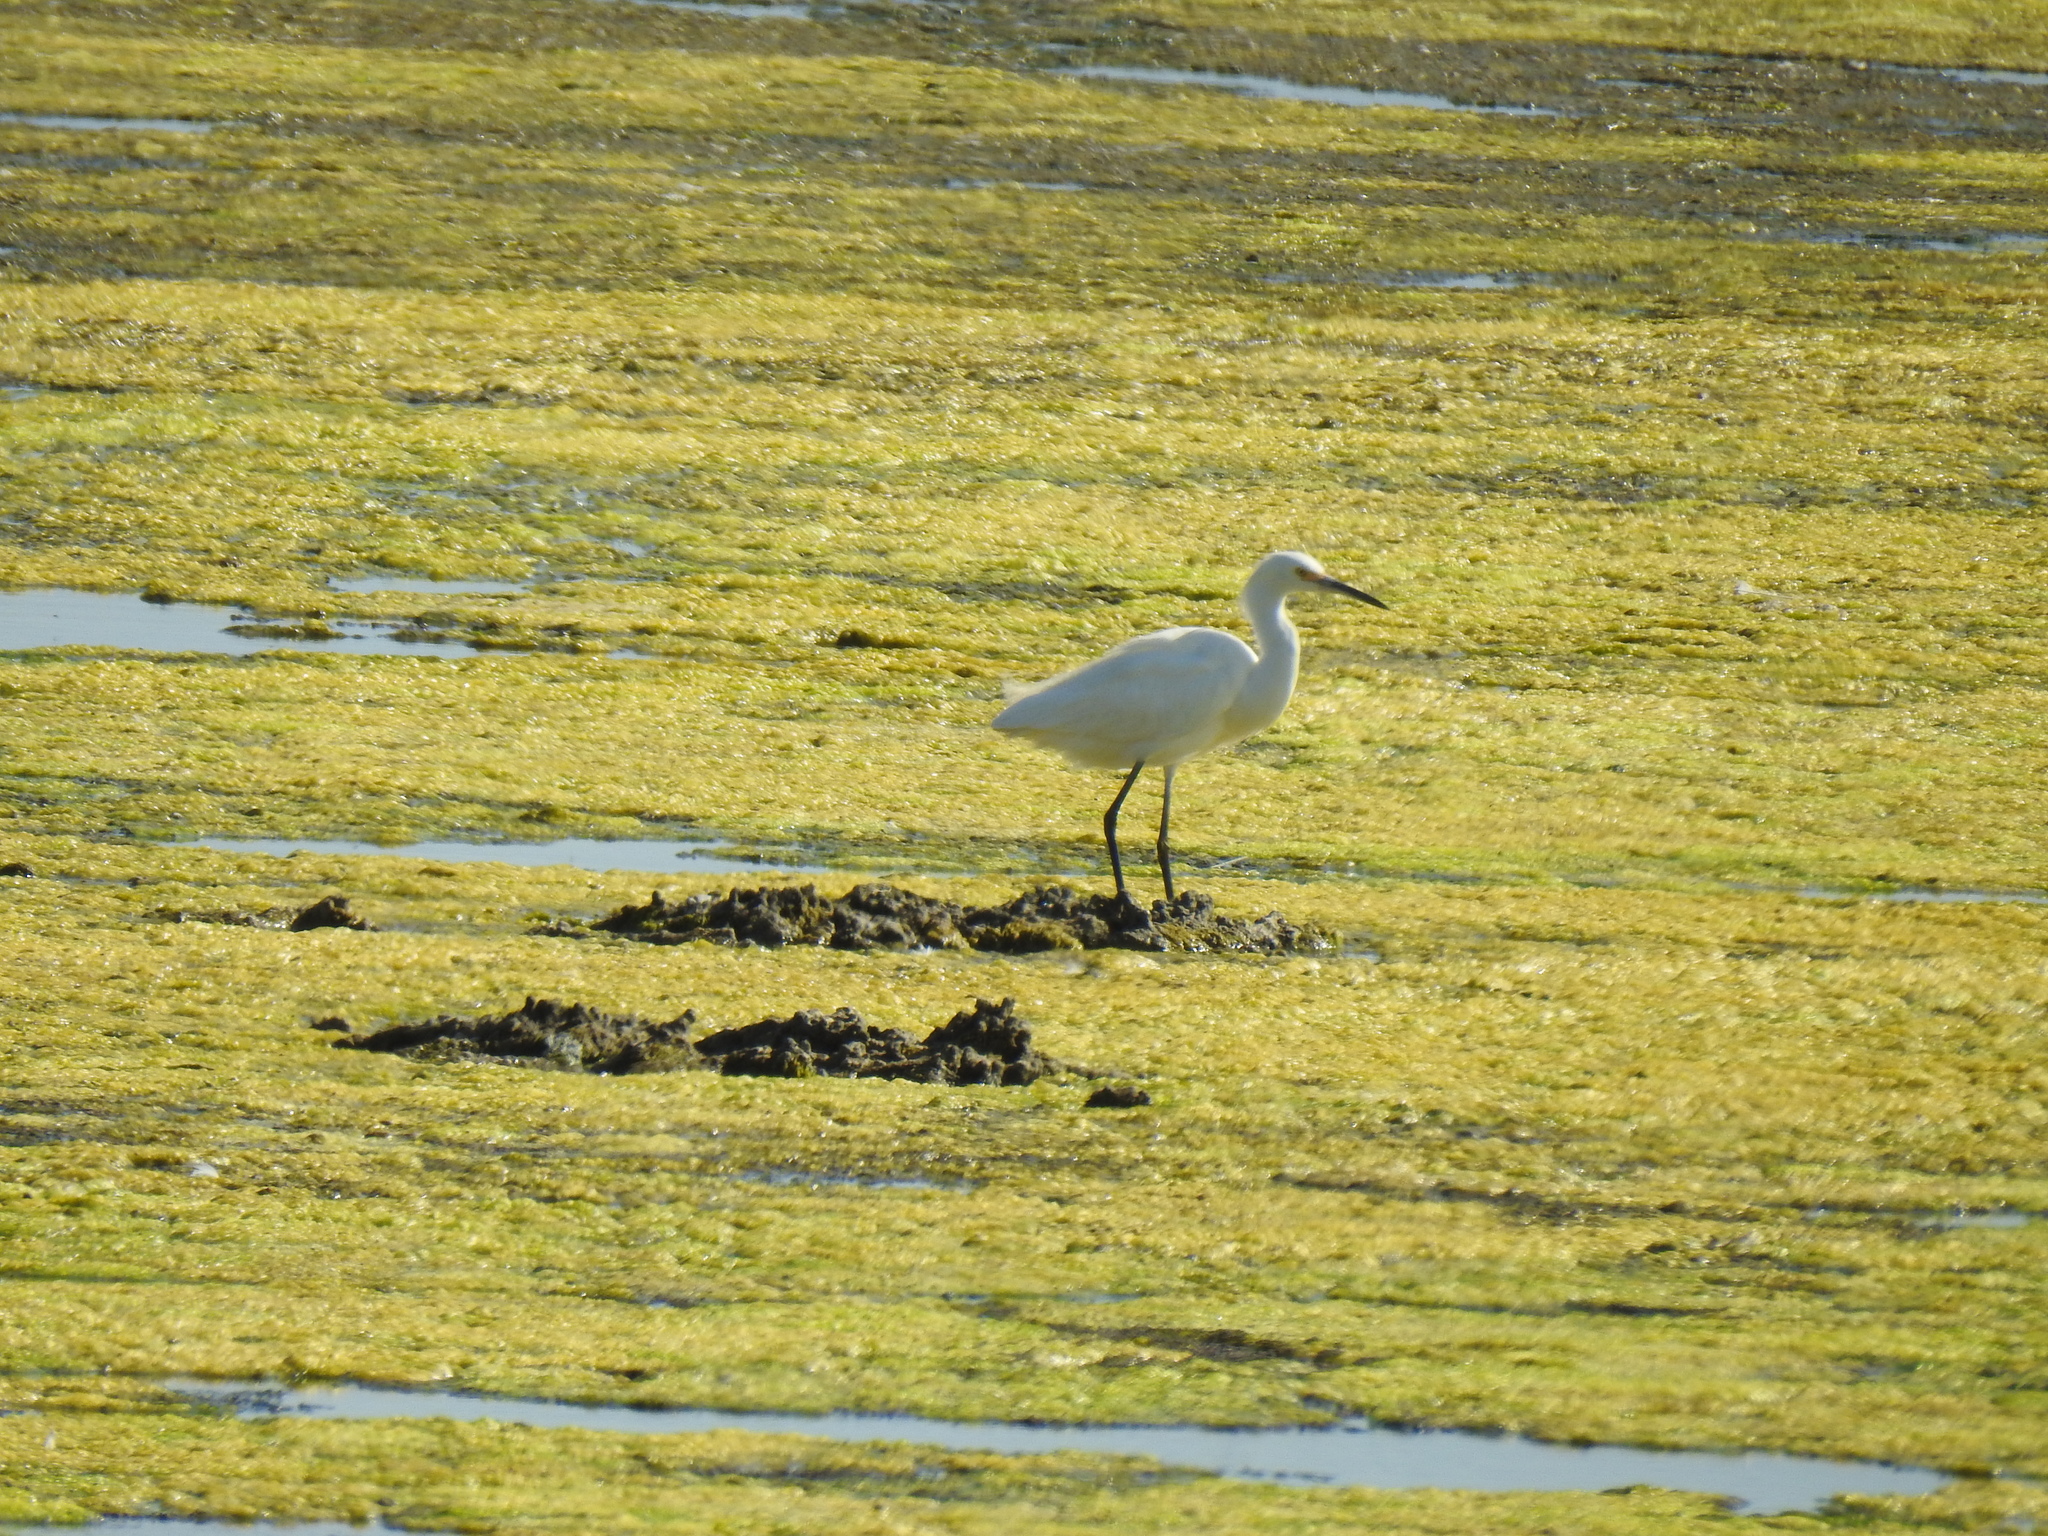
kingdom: Animalia
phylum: Chordata
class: Aves
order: Pelecaniformes
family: Ardeidae
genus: Egretta
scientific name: Egretta thula
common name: Snowy egret
